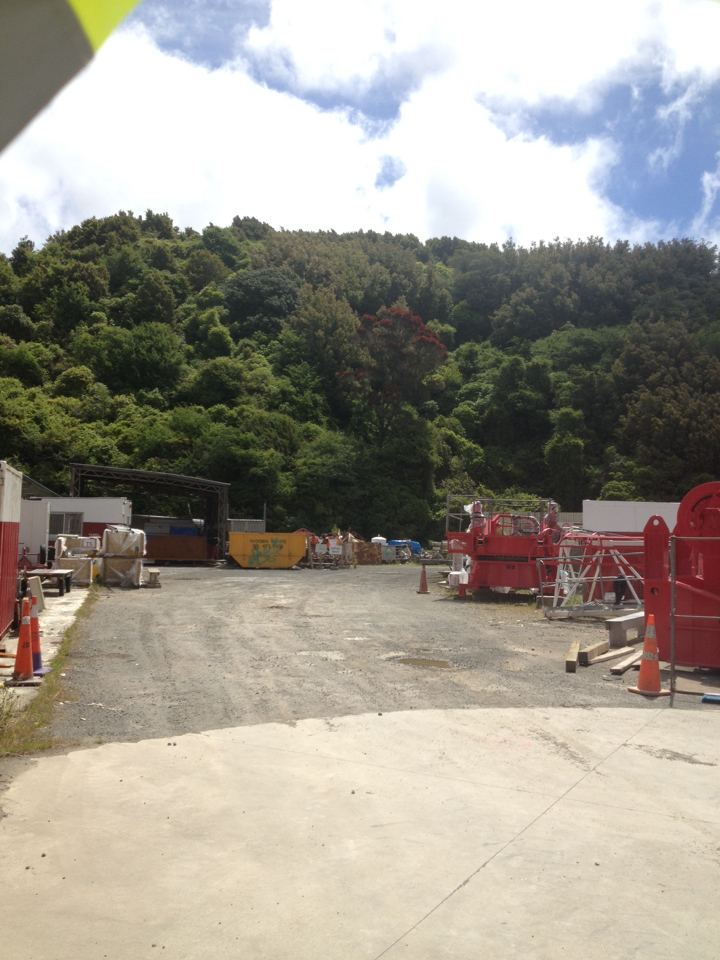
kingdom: Plantae
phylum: Tracheophyta
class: Magnoliopsida
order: Myrtales
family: Myrtaceae
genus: Metrosideros
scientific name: Metrosideros robusta
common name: Northern rata
